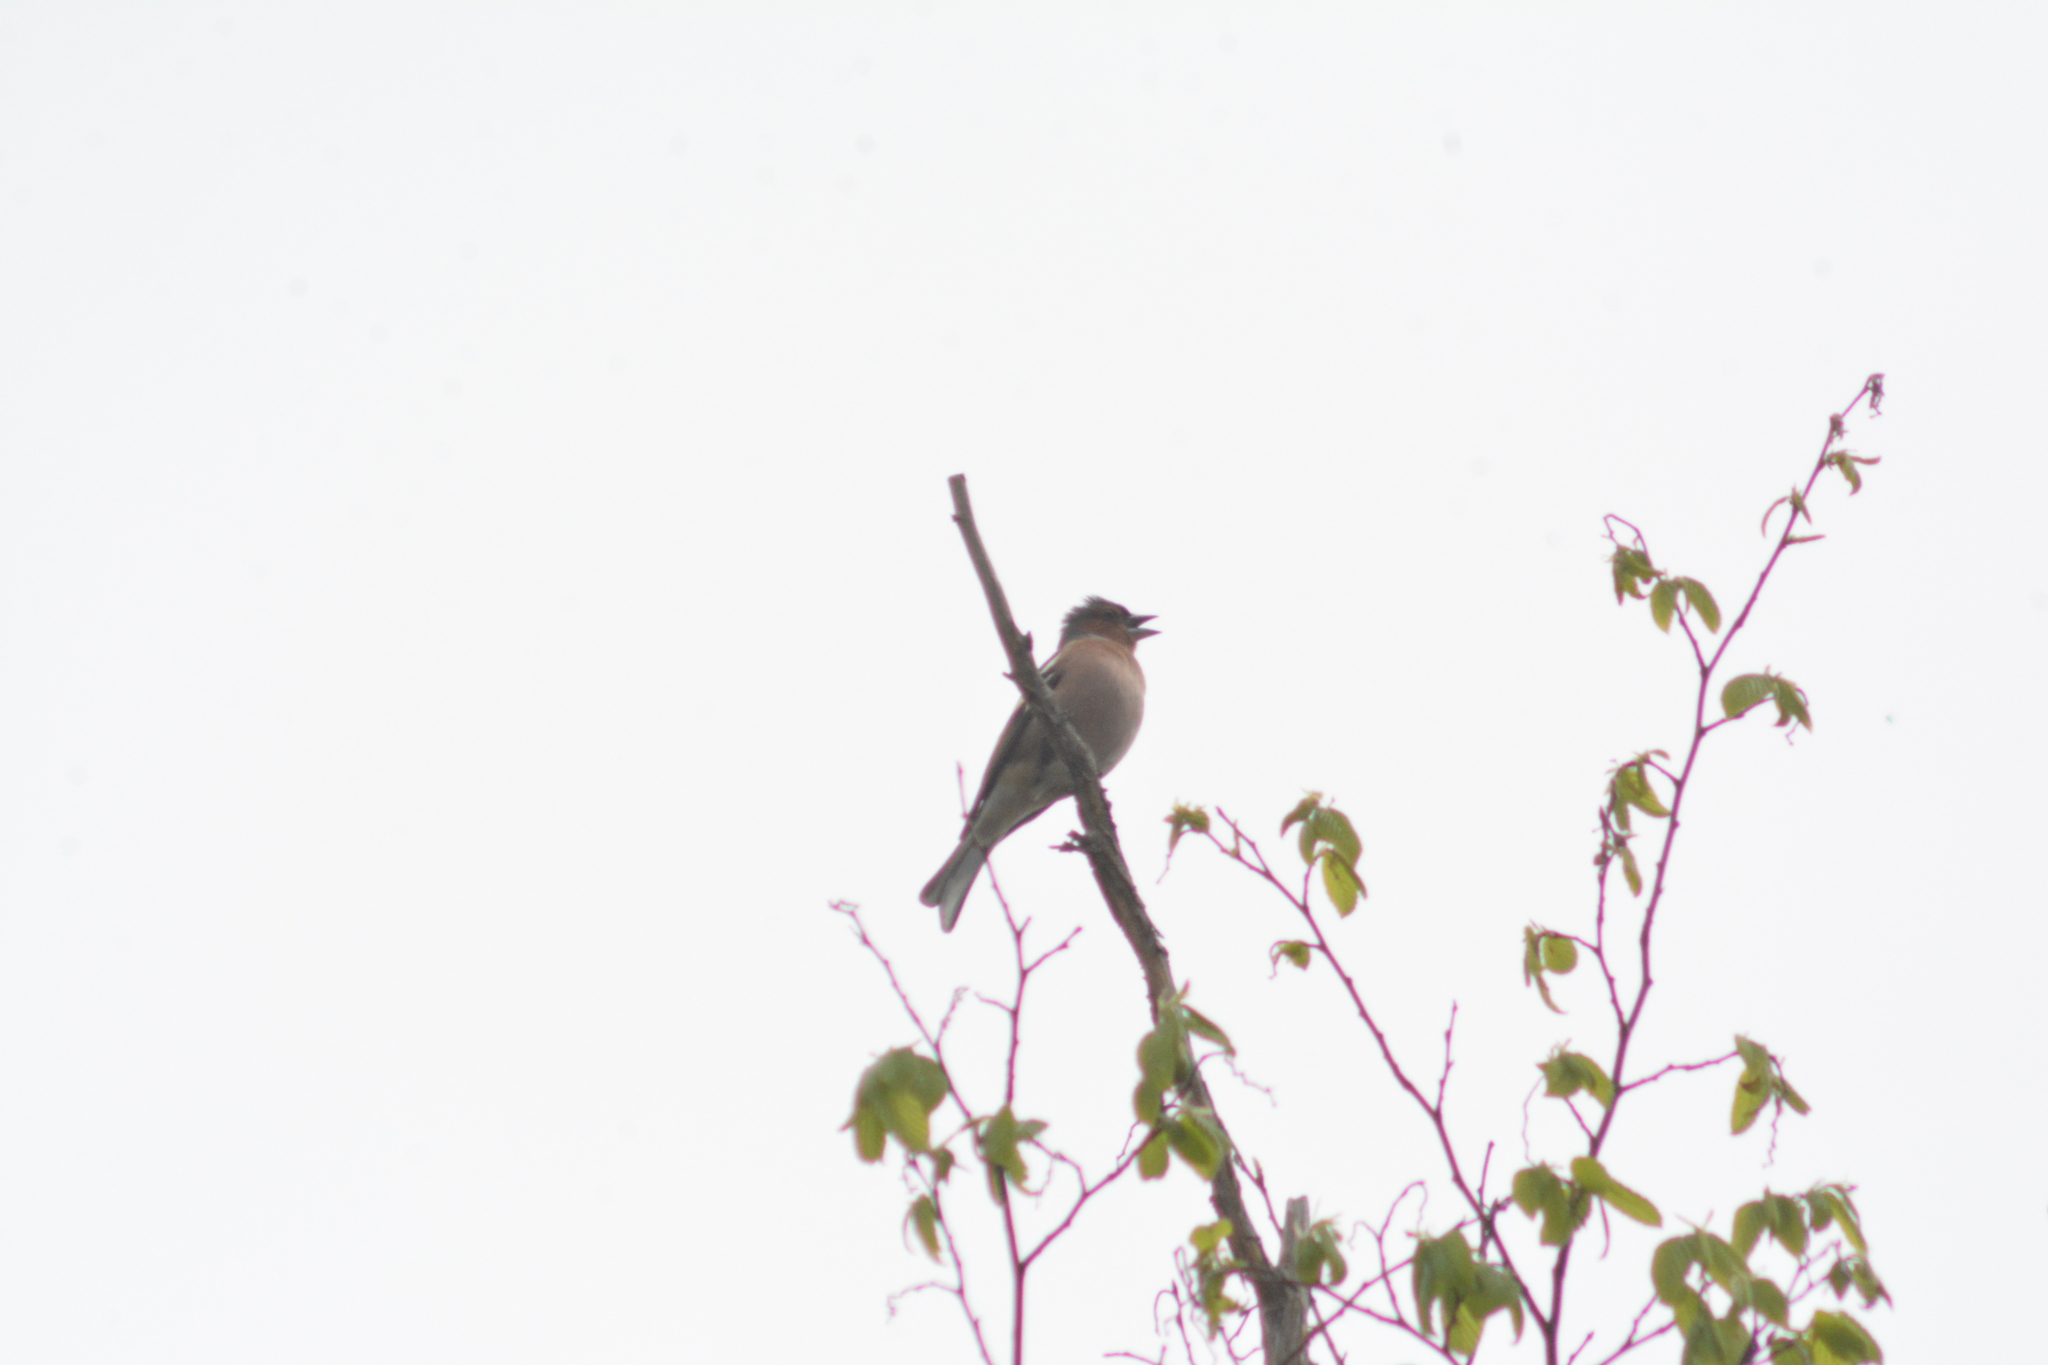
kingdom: Animalia
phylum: Chordata
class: Aves
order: Passeriformes
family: Fringillidae
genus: Fringilla
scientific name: Fringilla coelebs
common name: Common chaffinch
